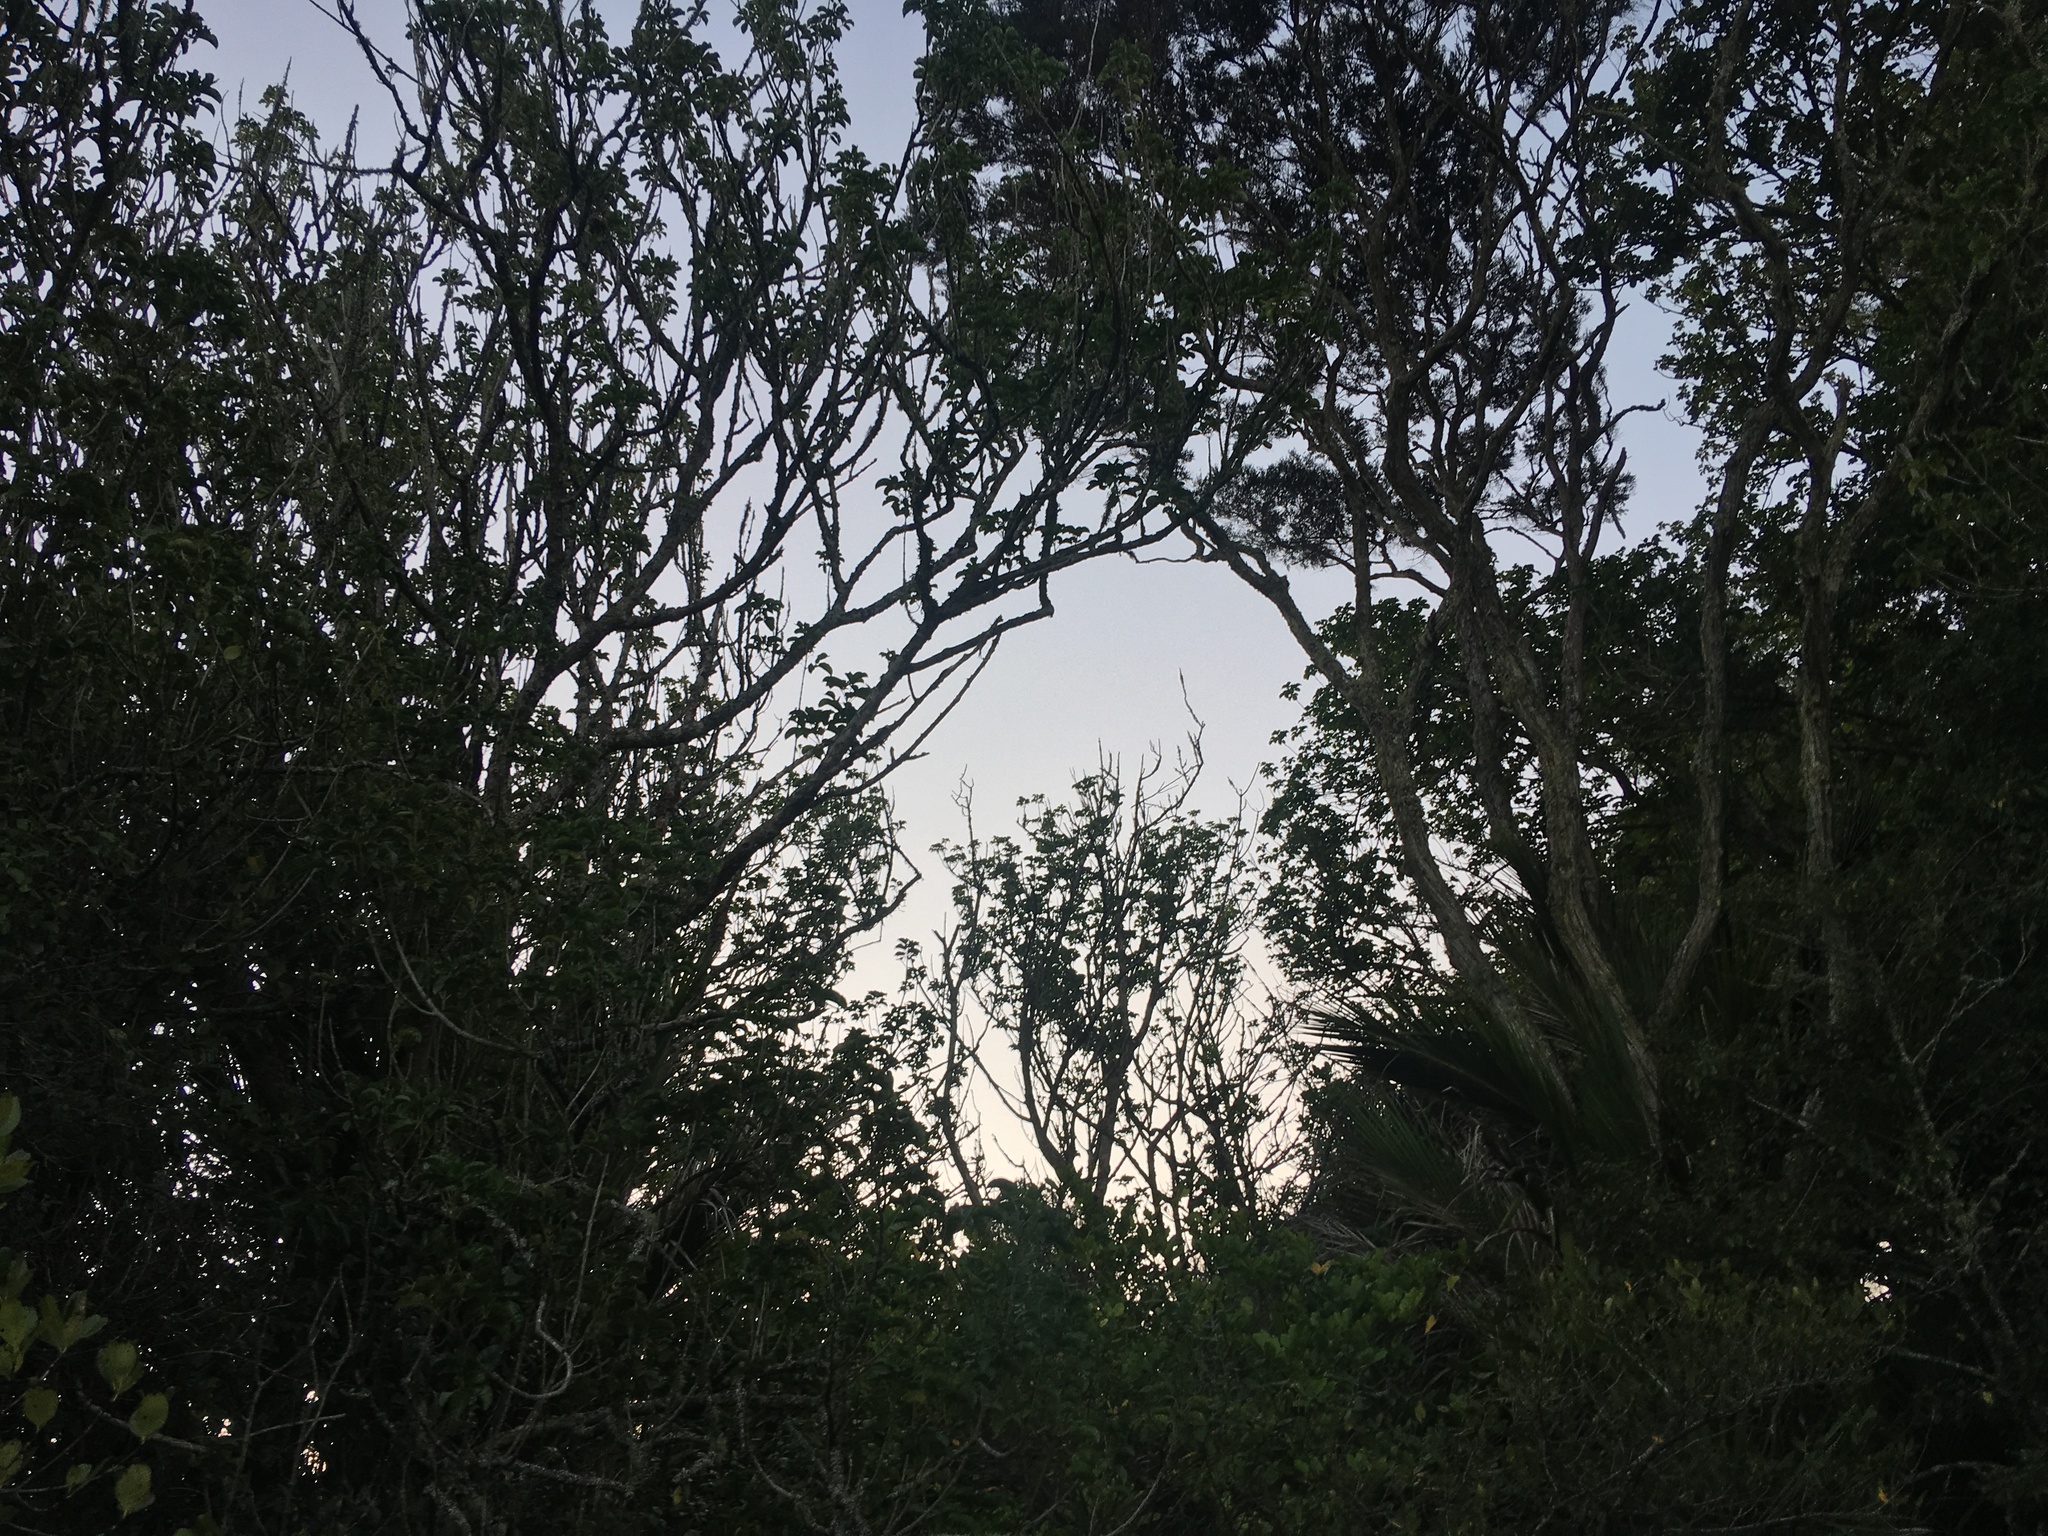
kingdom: Plantae
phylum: Tracheophyta
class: Magnoliopsida
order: Lamiales
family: Lamiaceae
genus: Vitex
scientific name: Vitex lucens
